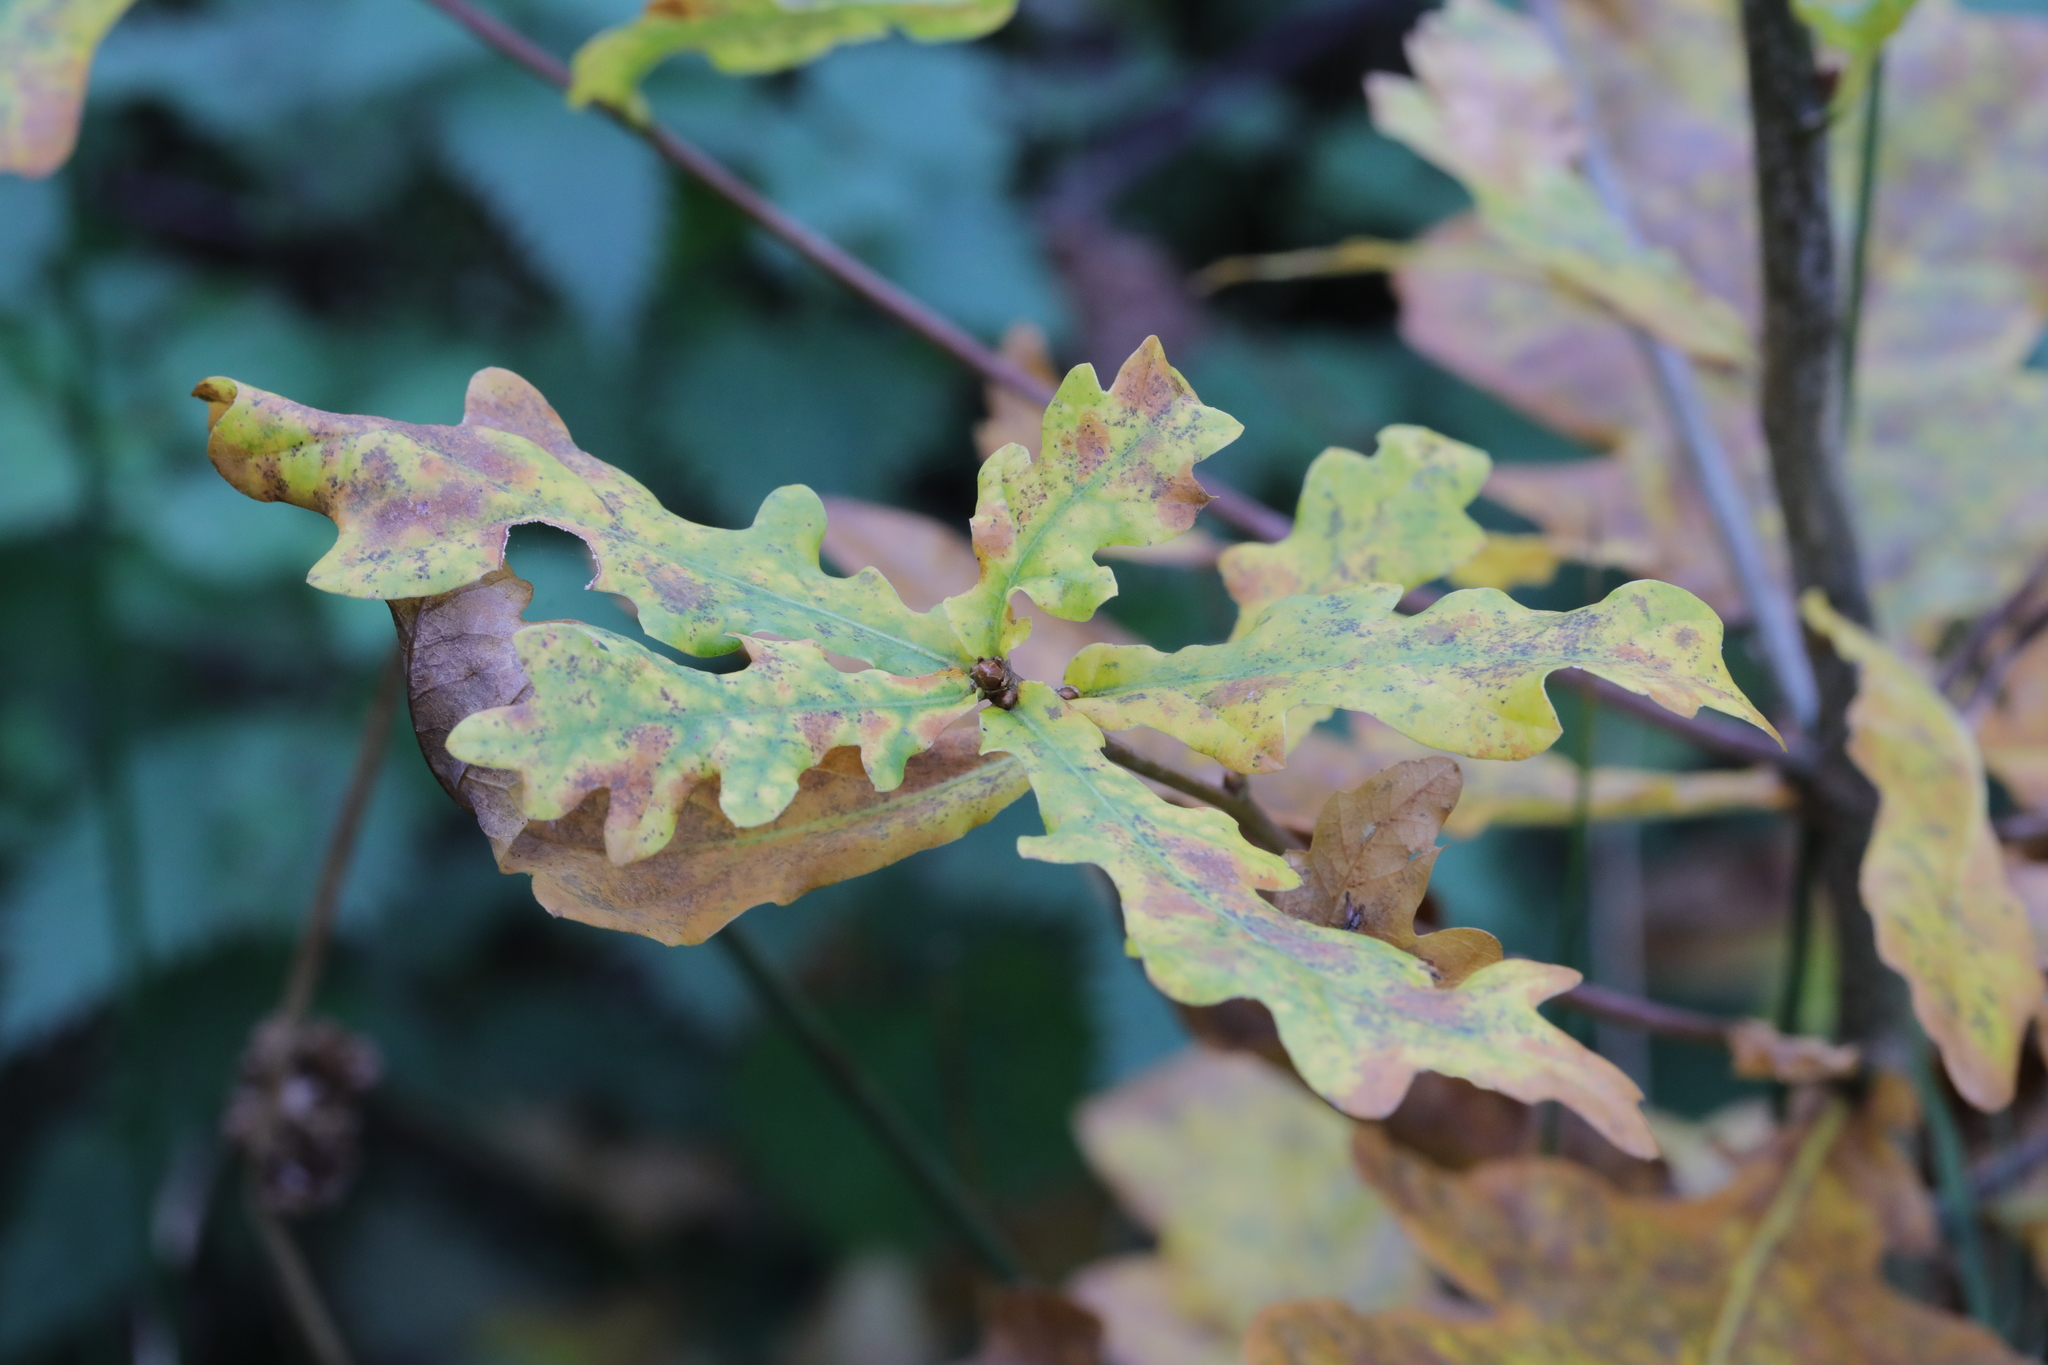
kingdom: Plantae
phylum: Tracheophyta
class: Magnoliopsida
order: Fagales
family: Fagaceae
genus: Quercus
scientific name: Quercus robur
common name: Pedunculate oak
